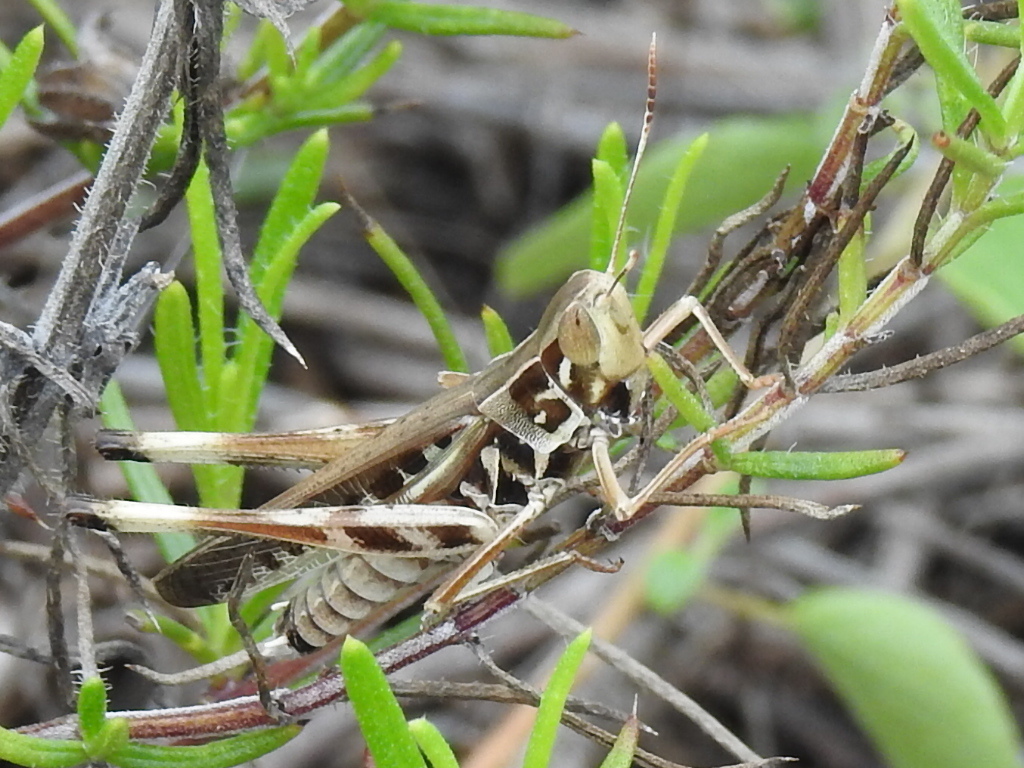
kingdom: Animalia
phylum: Arthropoda
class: Insecta
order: Orthoptera
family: Acrididae
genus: Syrbula
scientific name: Syrbula admirabilis
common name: Handsome grasshopper
